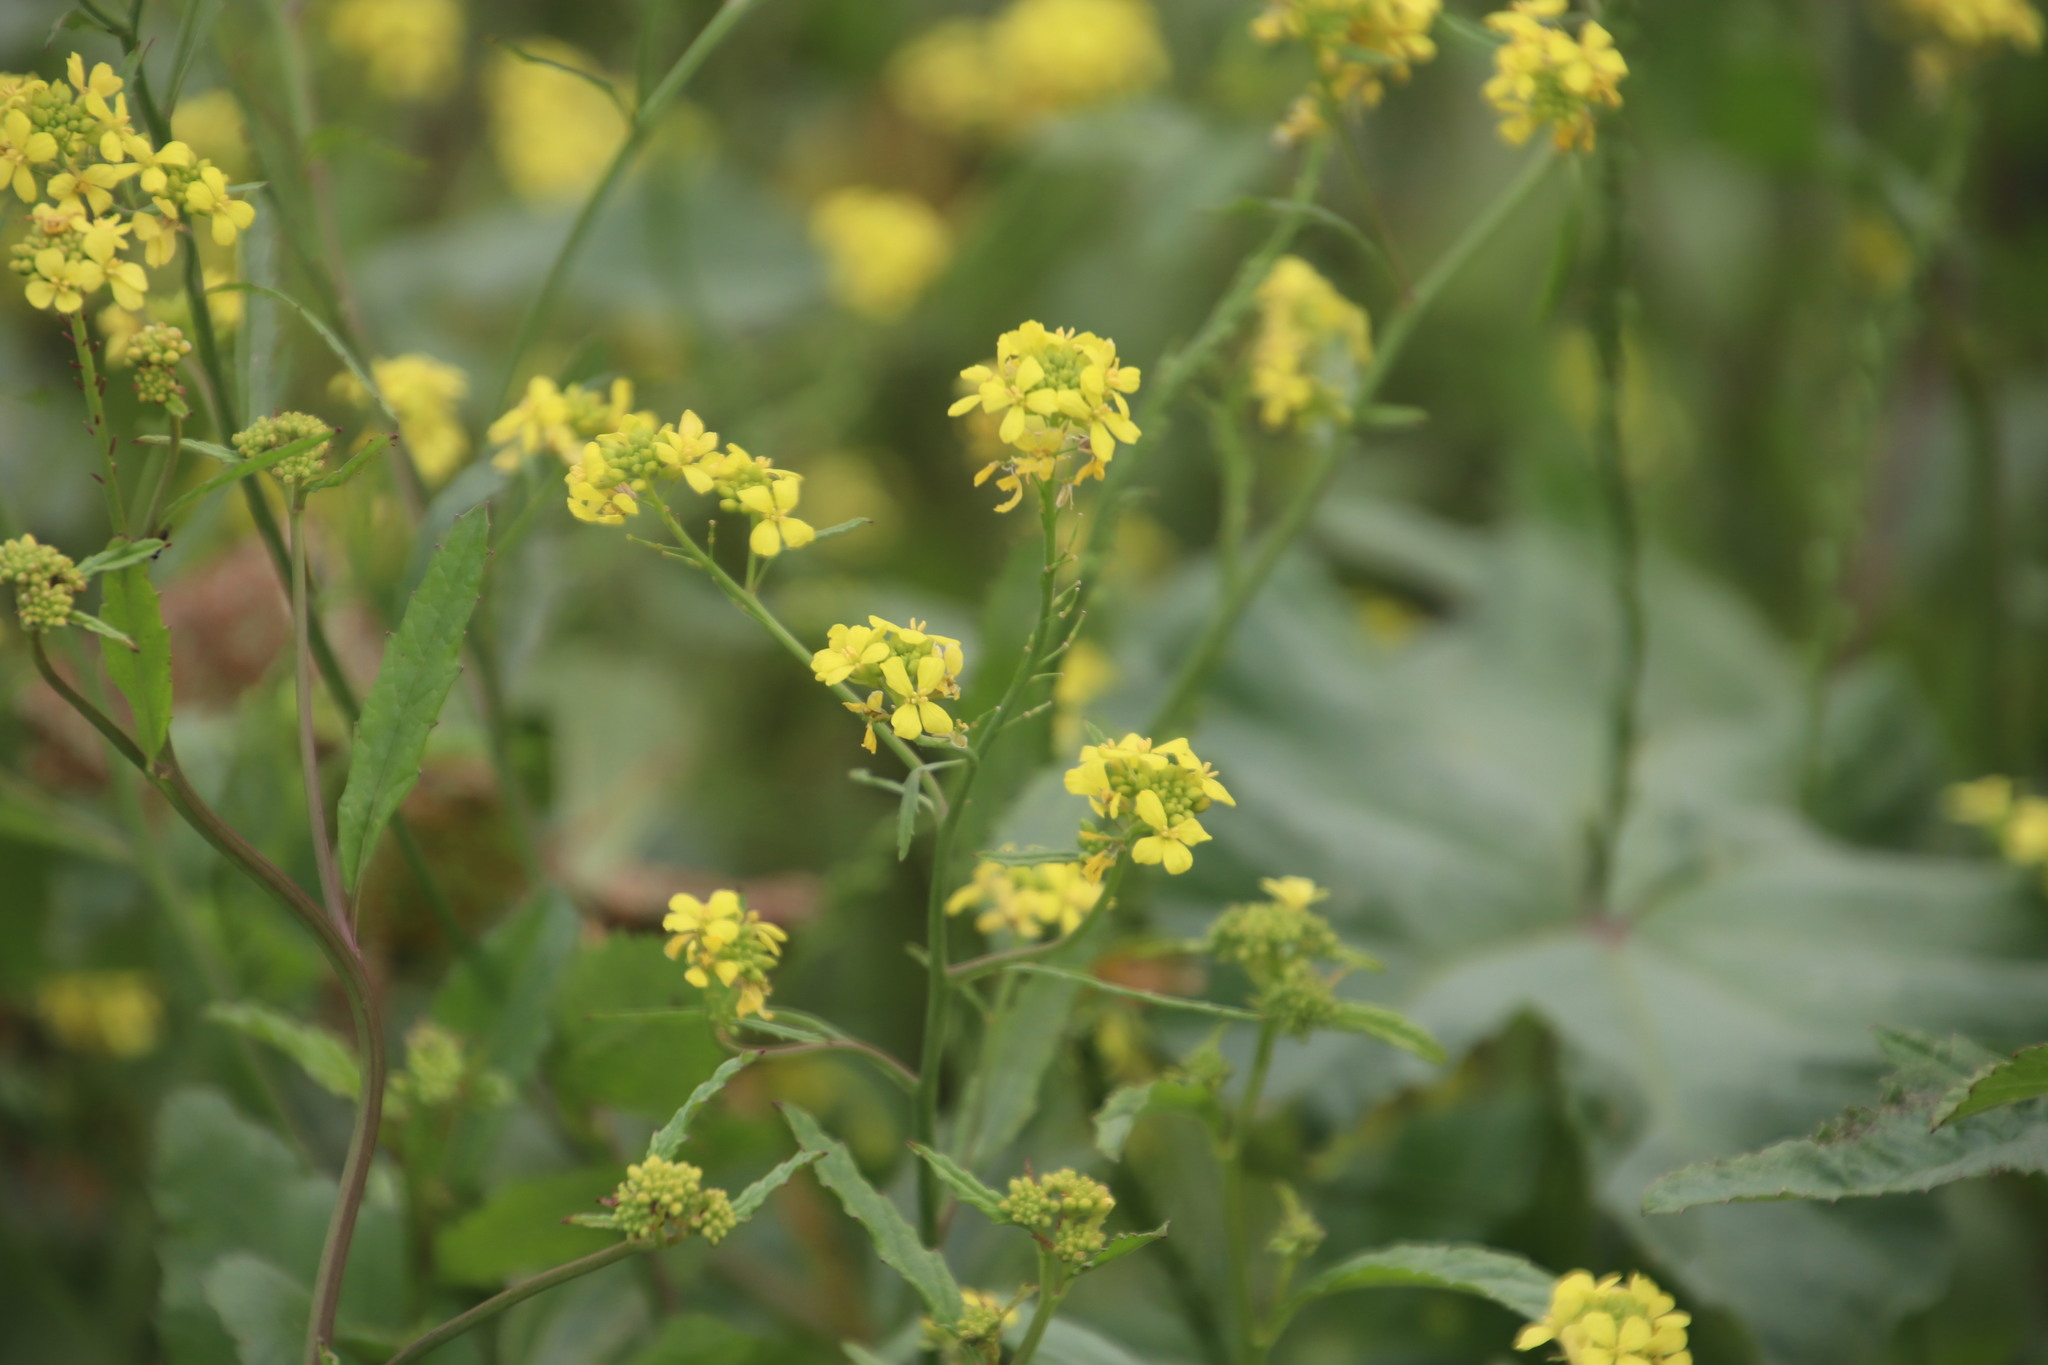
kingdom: Plantae
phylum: Tracheophyta
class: Magnoliopsida
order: Brassicales
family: Brassicaceae
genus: Rapistrum
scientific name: Rapistrum rugosum
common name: Annual bastardcabbage
